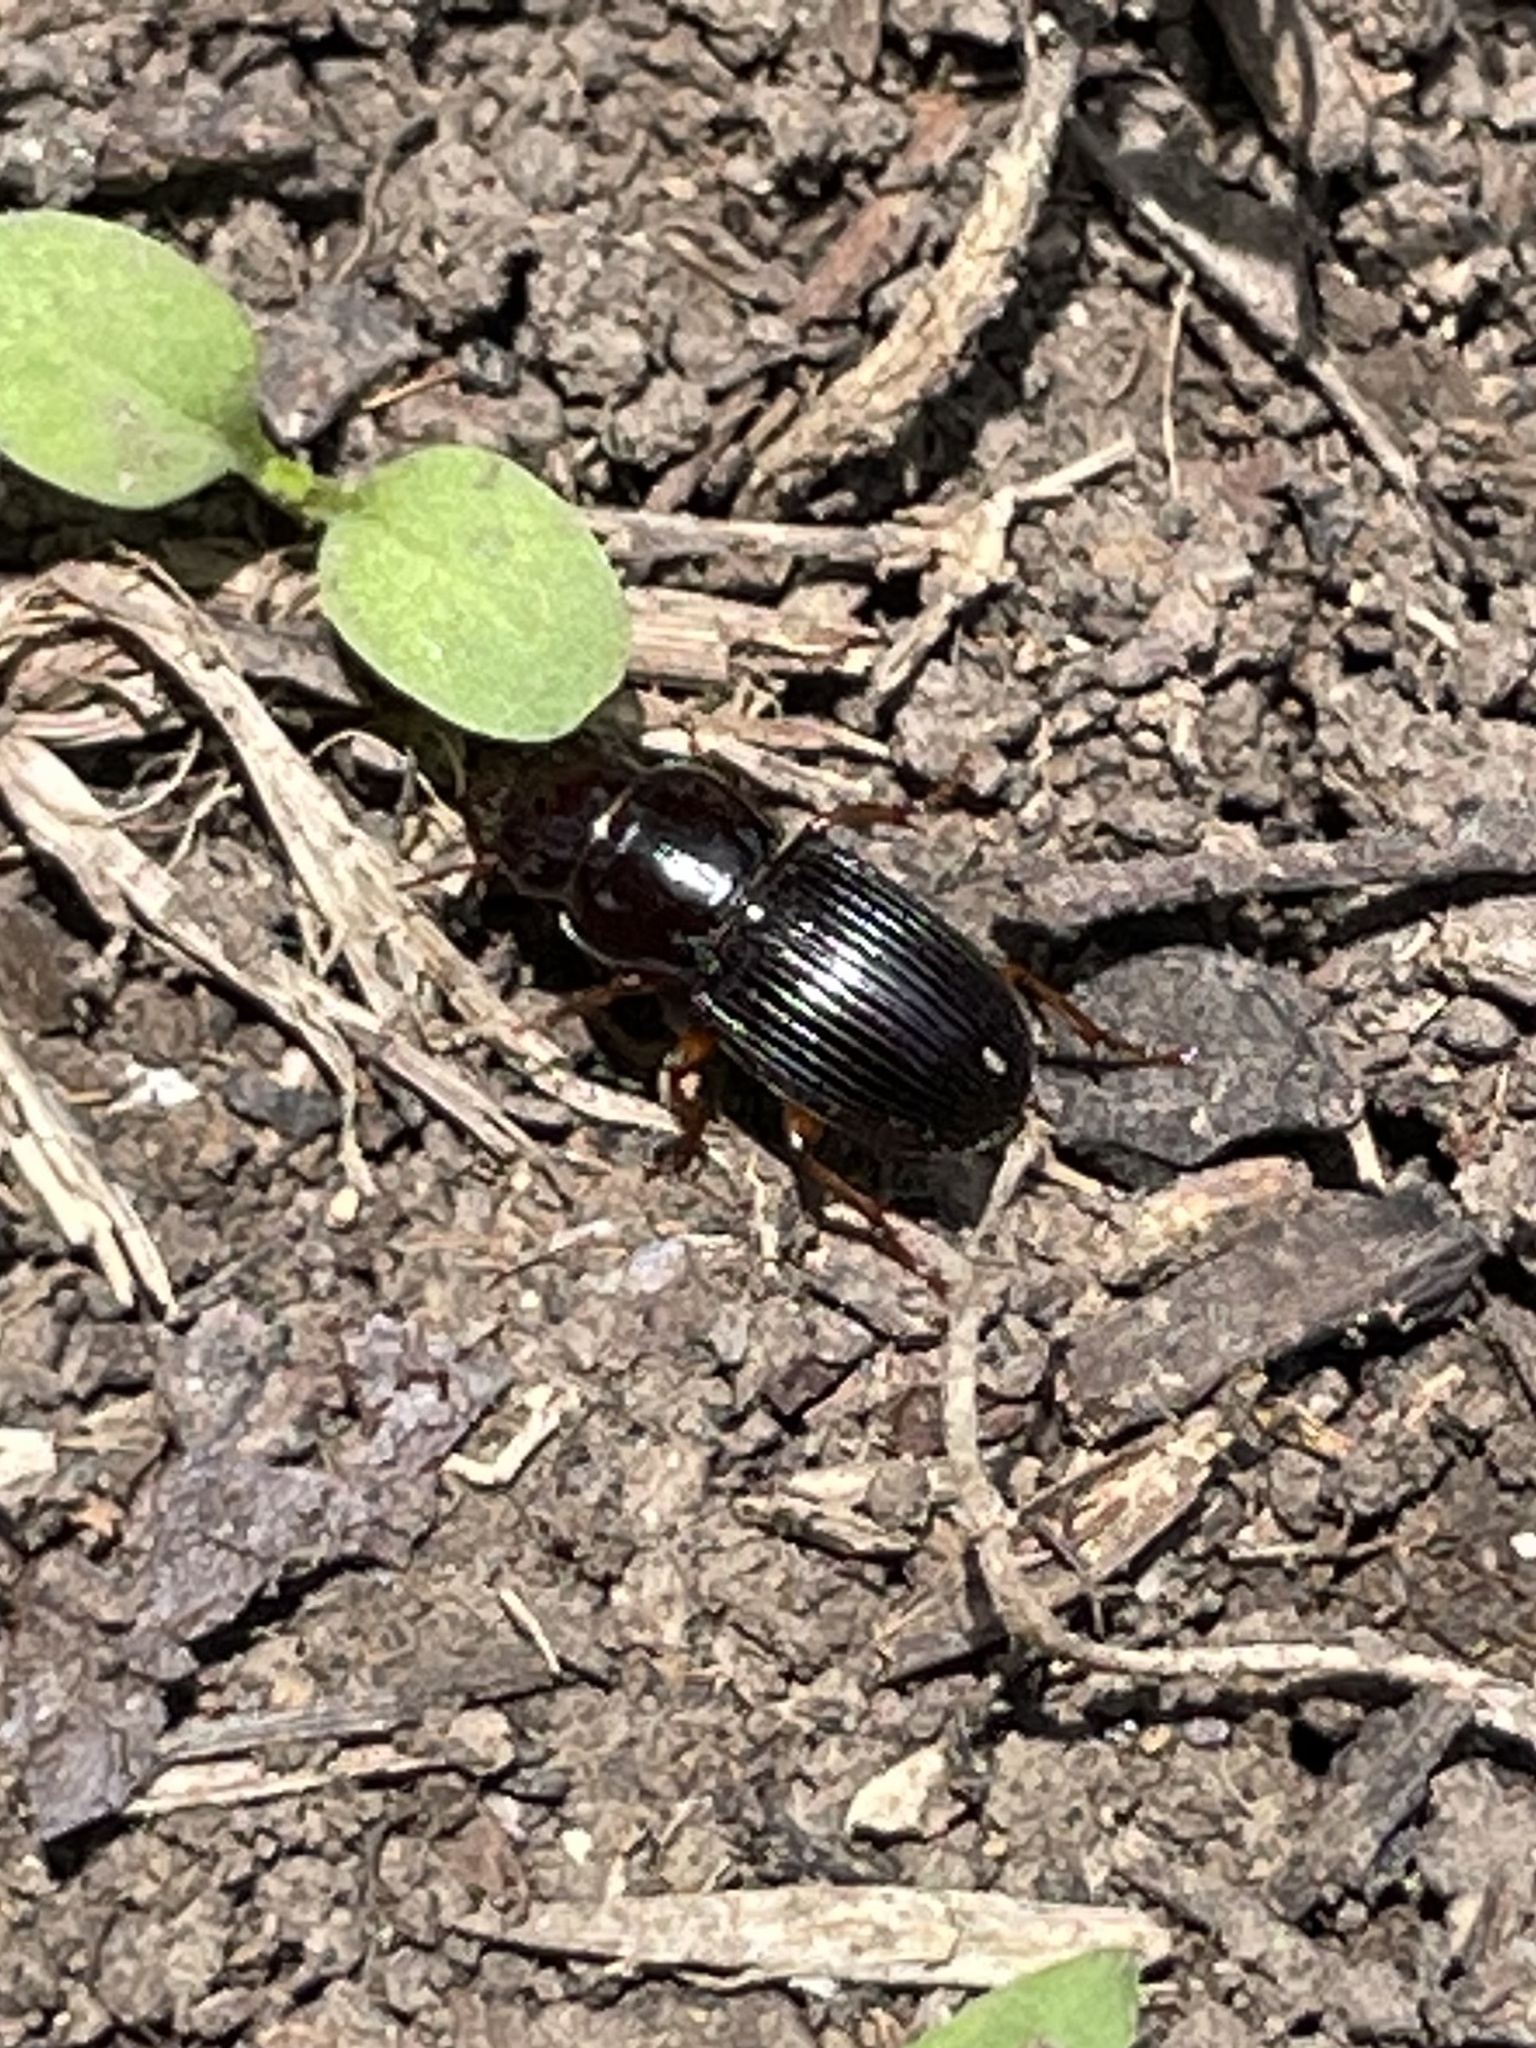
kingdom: Animalia
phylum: Arthropoda
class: Insecta
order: Coleoptera
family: Carabidae
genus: Cratacanthus
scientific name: Cratacanthus dubius
